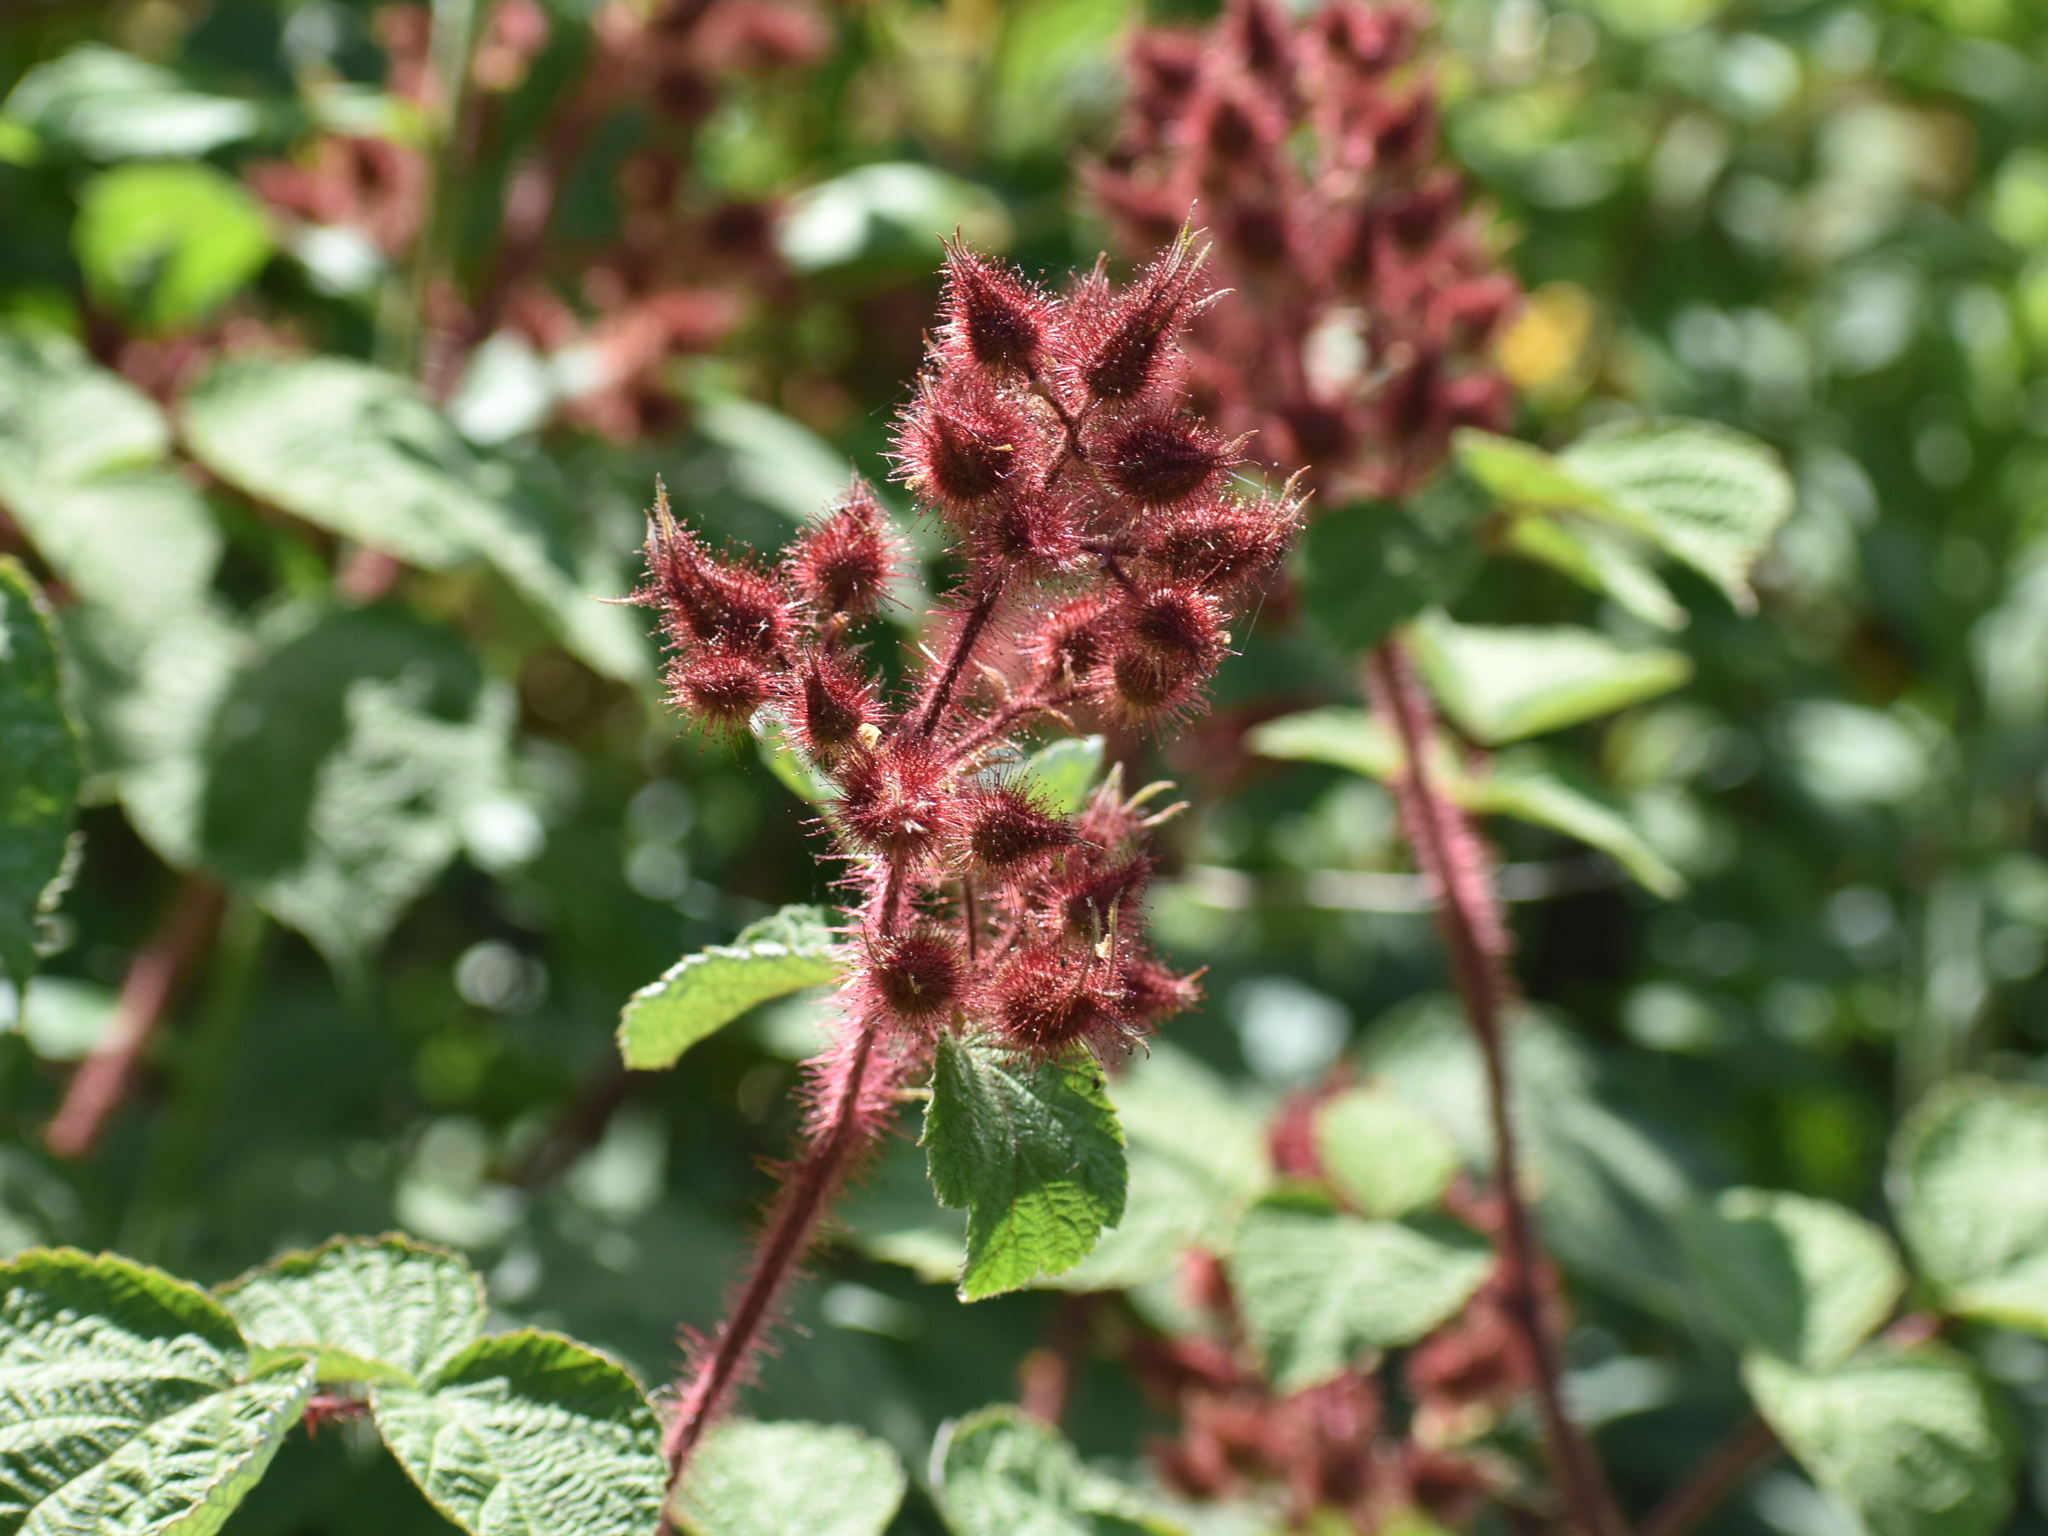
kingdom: Plantae
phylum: Tracheophyta
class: Magnoliopsida
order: Rosales
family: Rosaceae
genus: Rubus
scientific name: Rubus phoenicolasius
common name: Japanese wineberry
